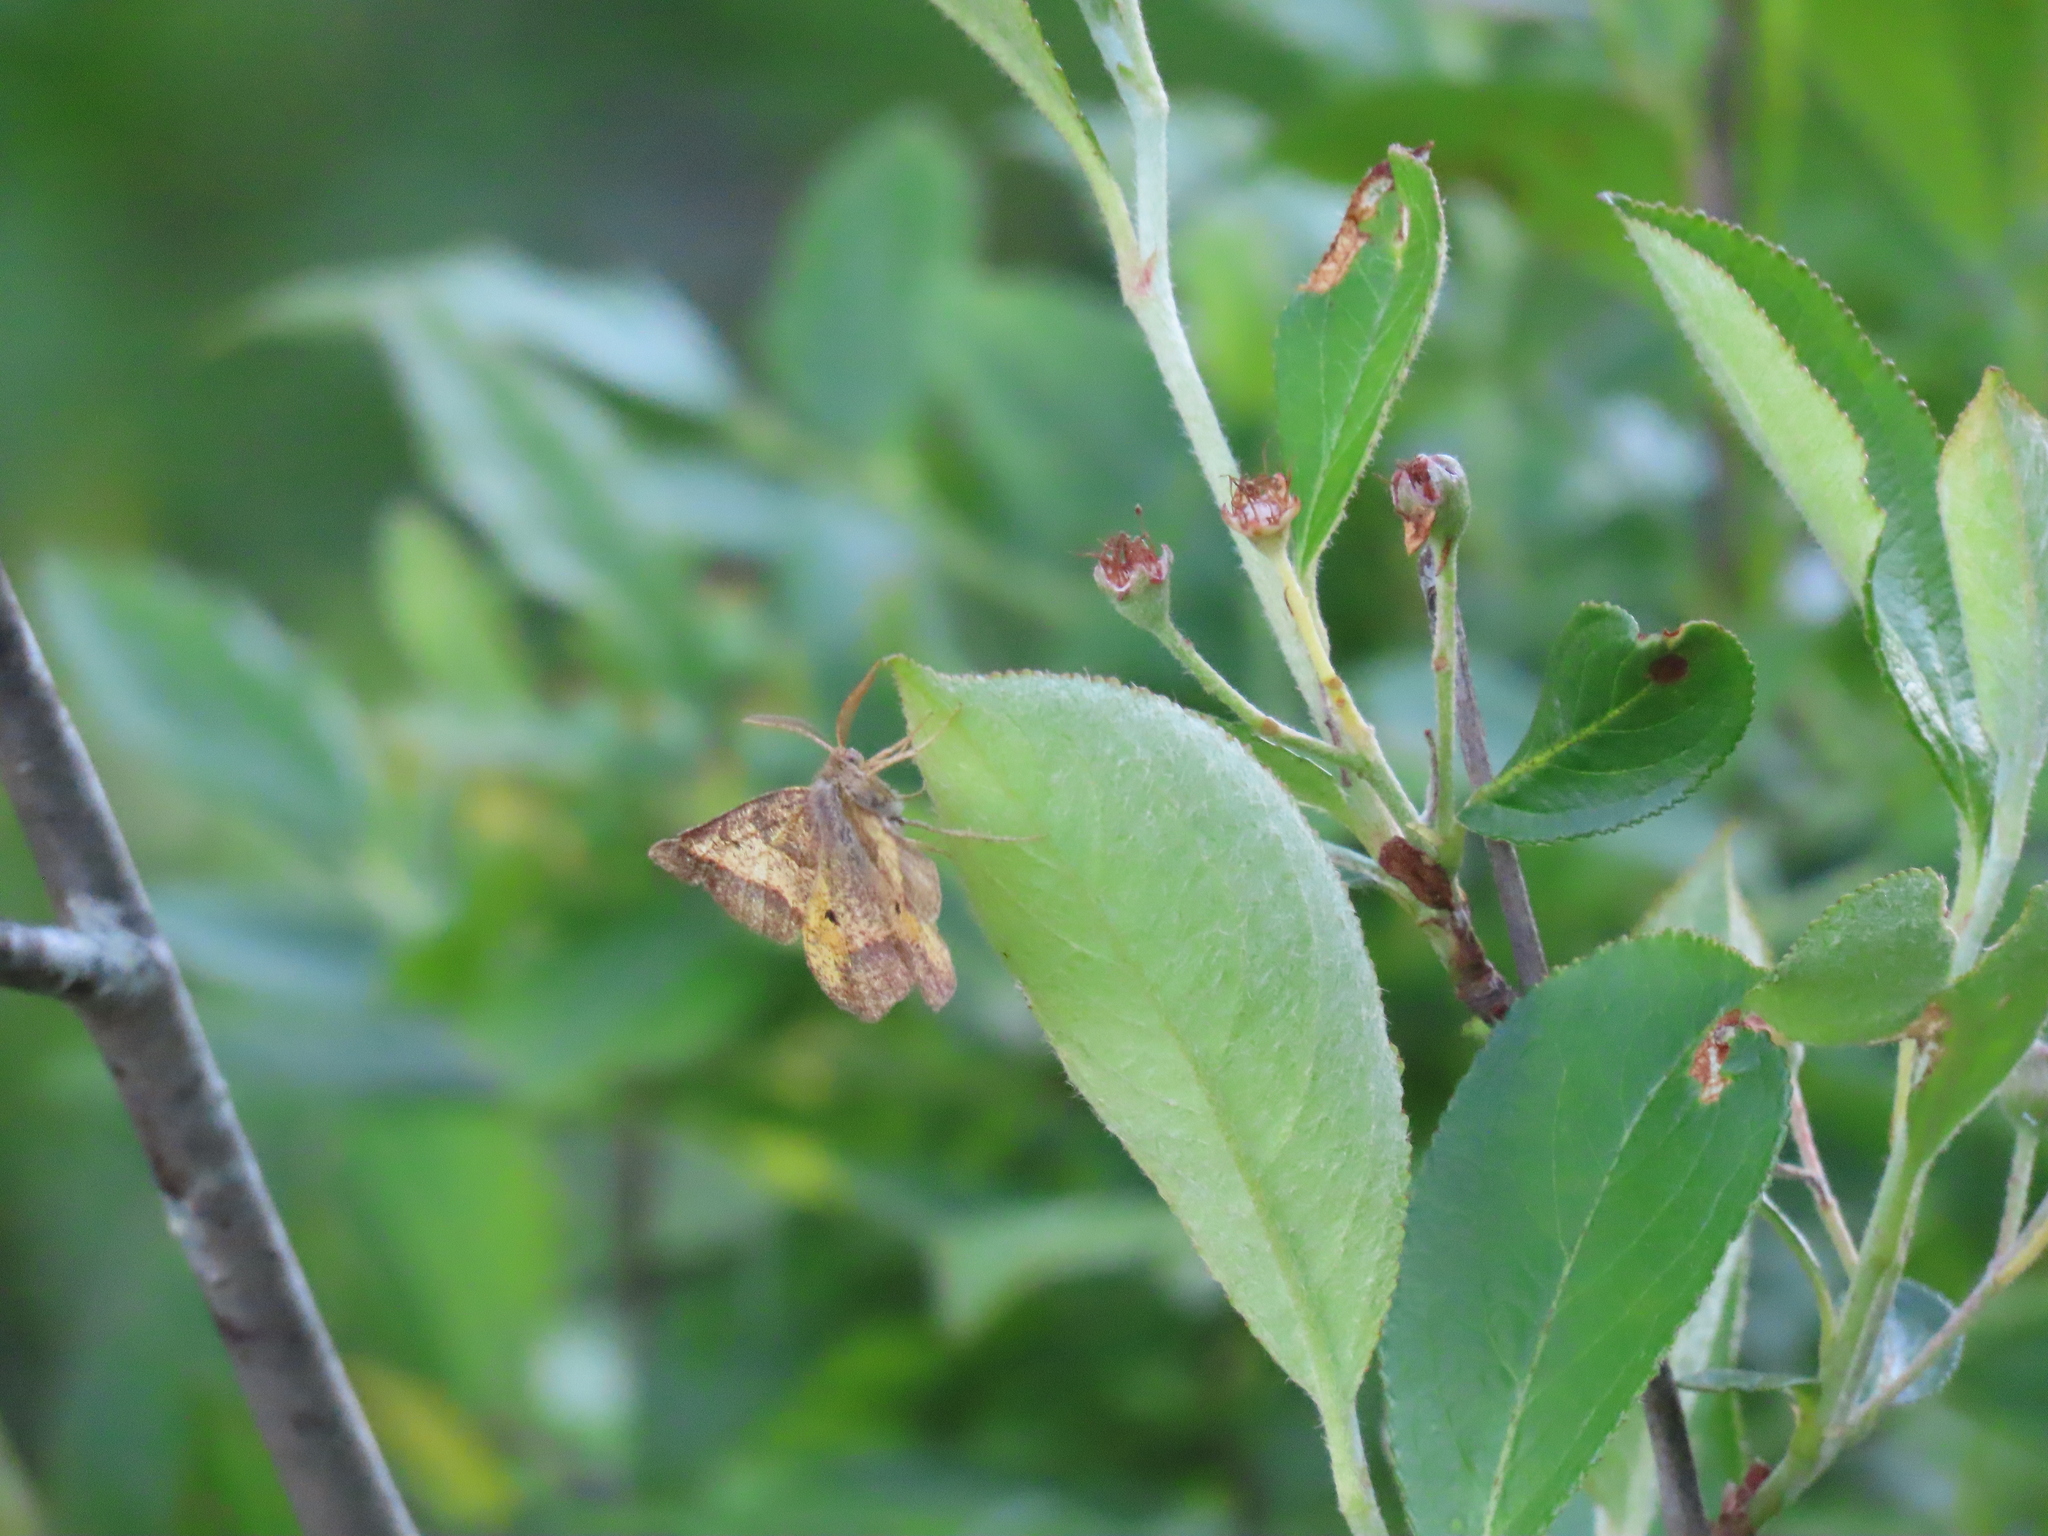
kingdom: Animalia
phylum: Arthropoda
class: Insecta
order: Lepidoptera
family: Geometridae
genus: Metarranthis
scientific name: Metarranthis obfirmaria
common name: Yellow-washed metarranthis
